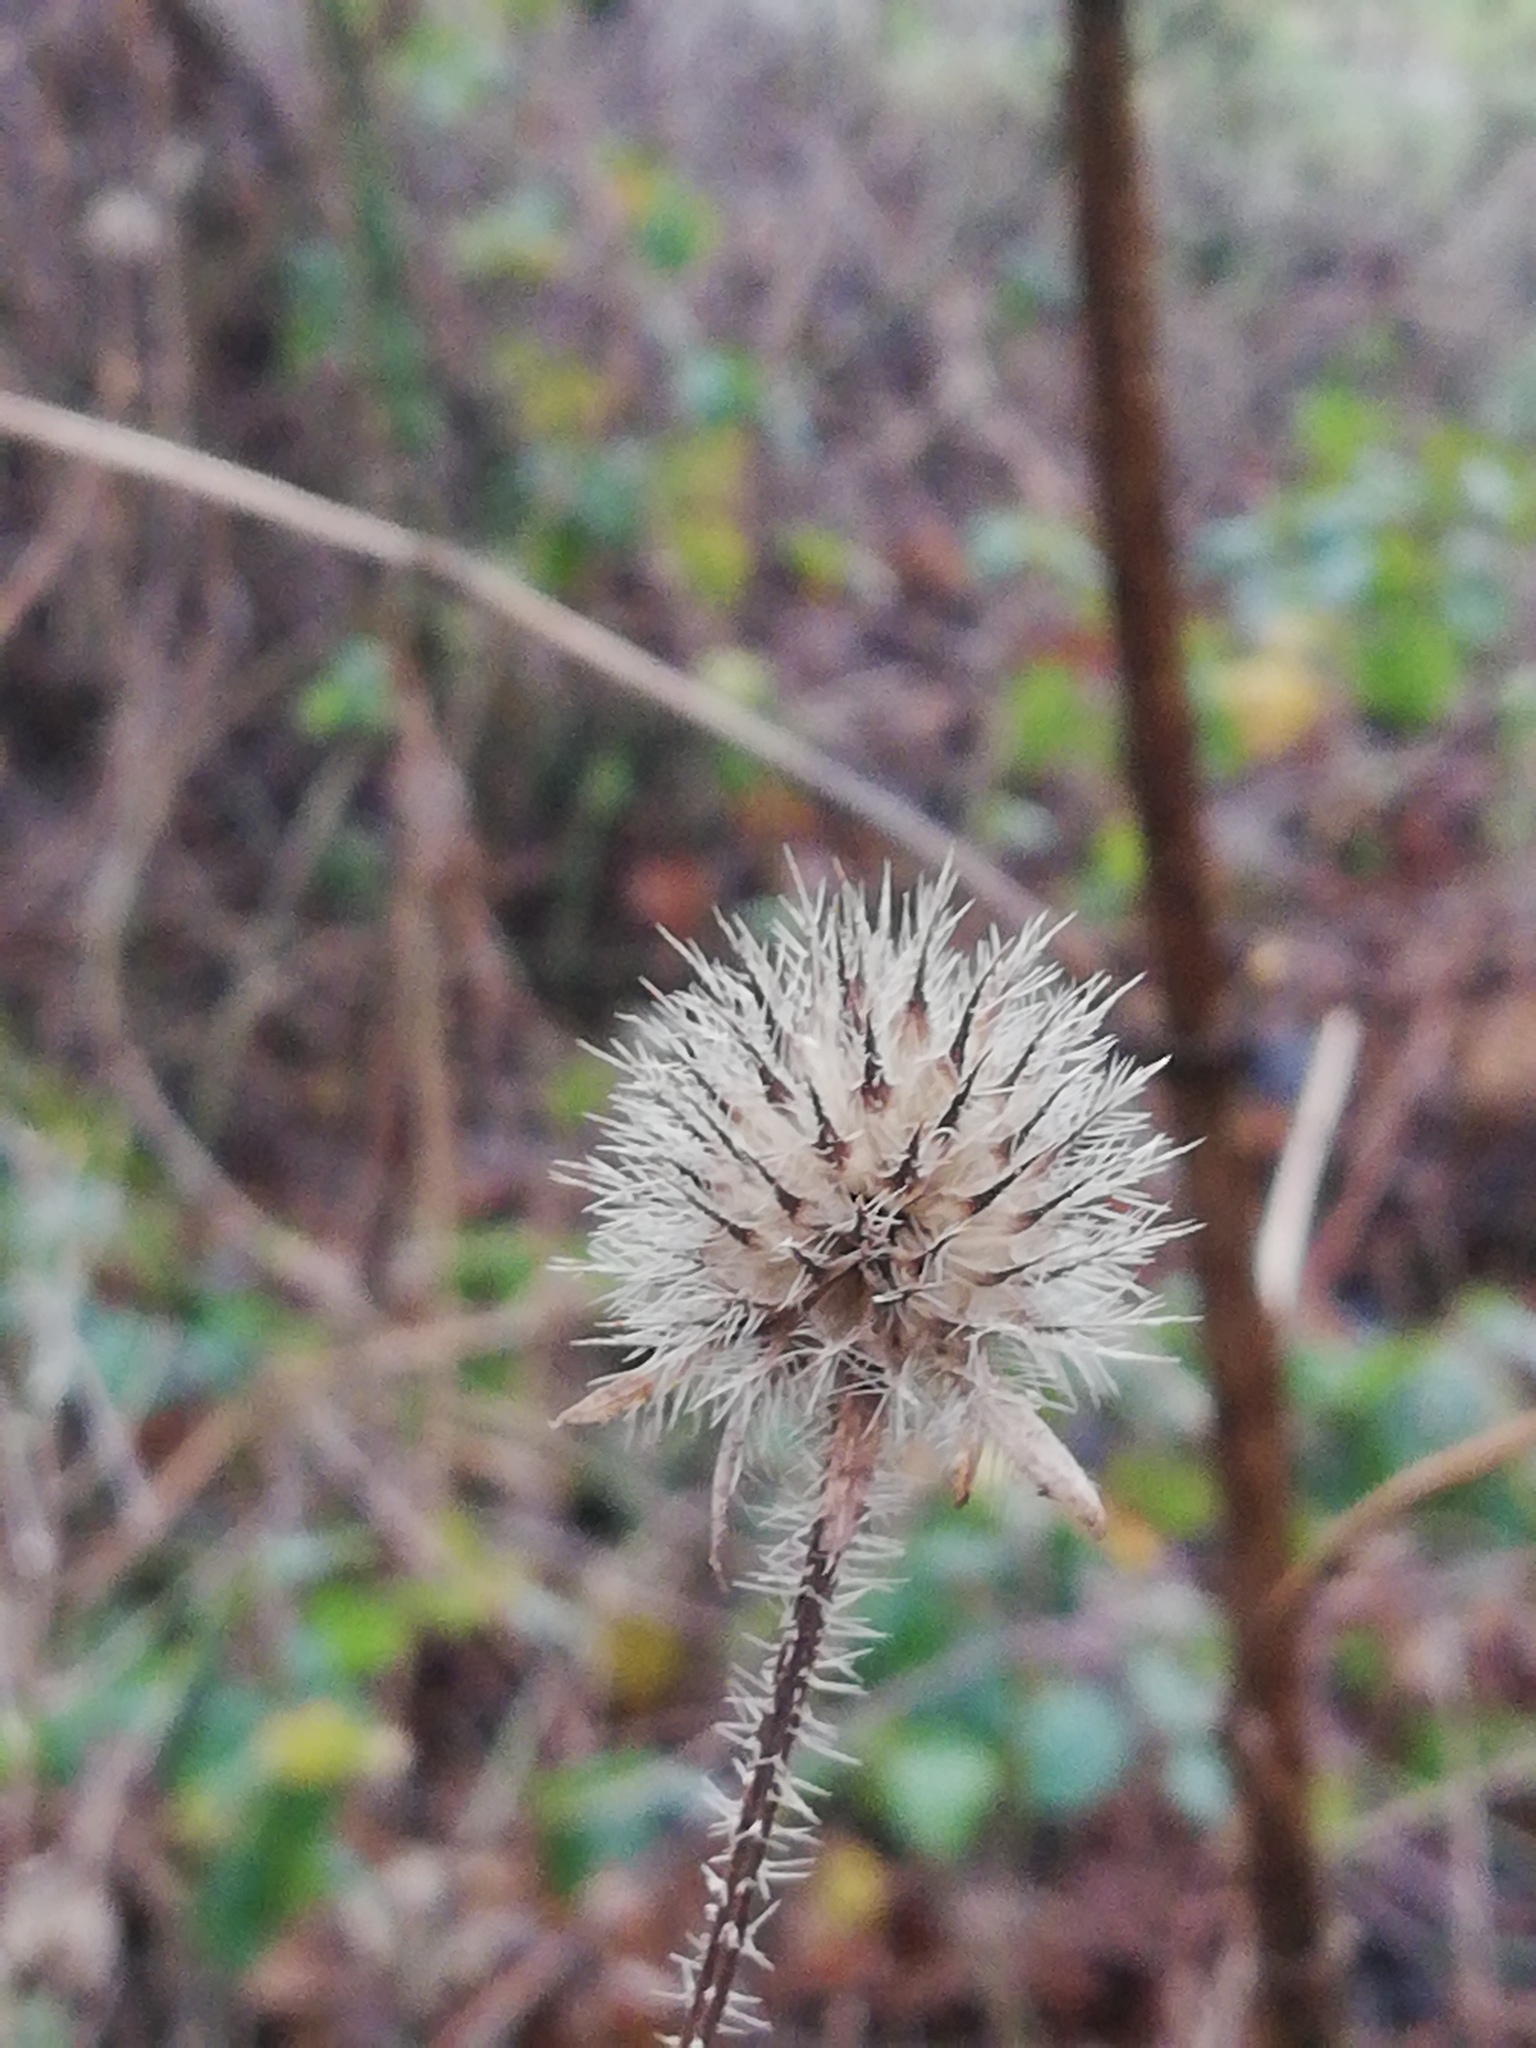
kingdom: Plantae
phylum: Tracheophyta
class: Magnoliopsida
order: Dipsacales
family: Caprifoliaceae
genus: Dipsacus
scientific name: Dipsacus pilosus
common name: Small teasel
